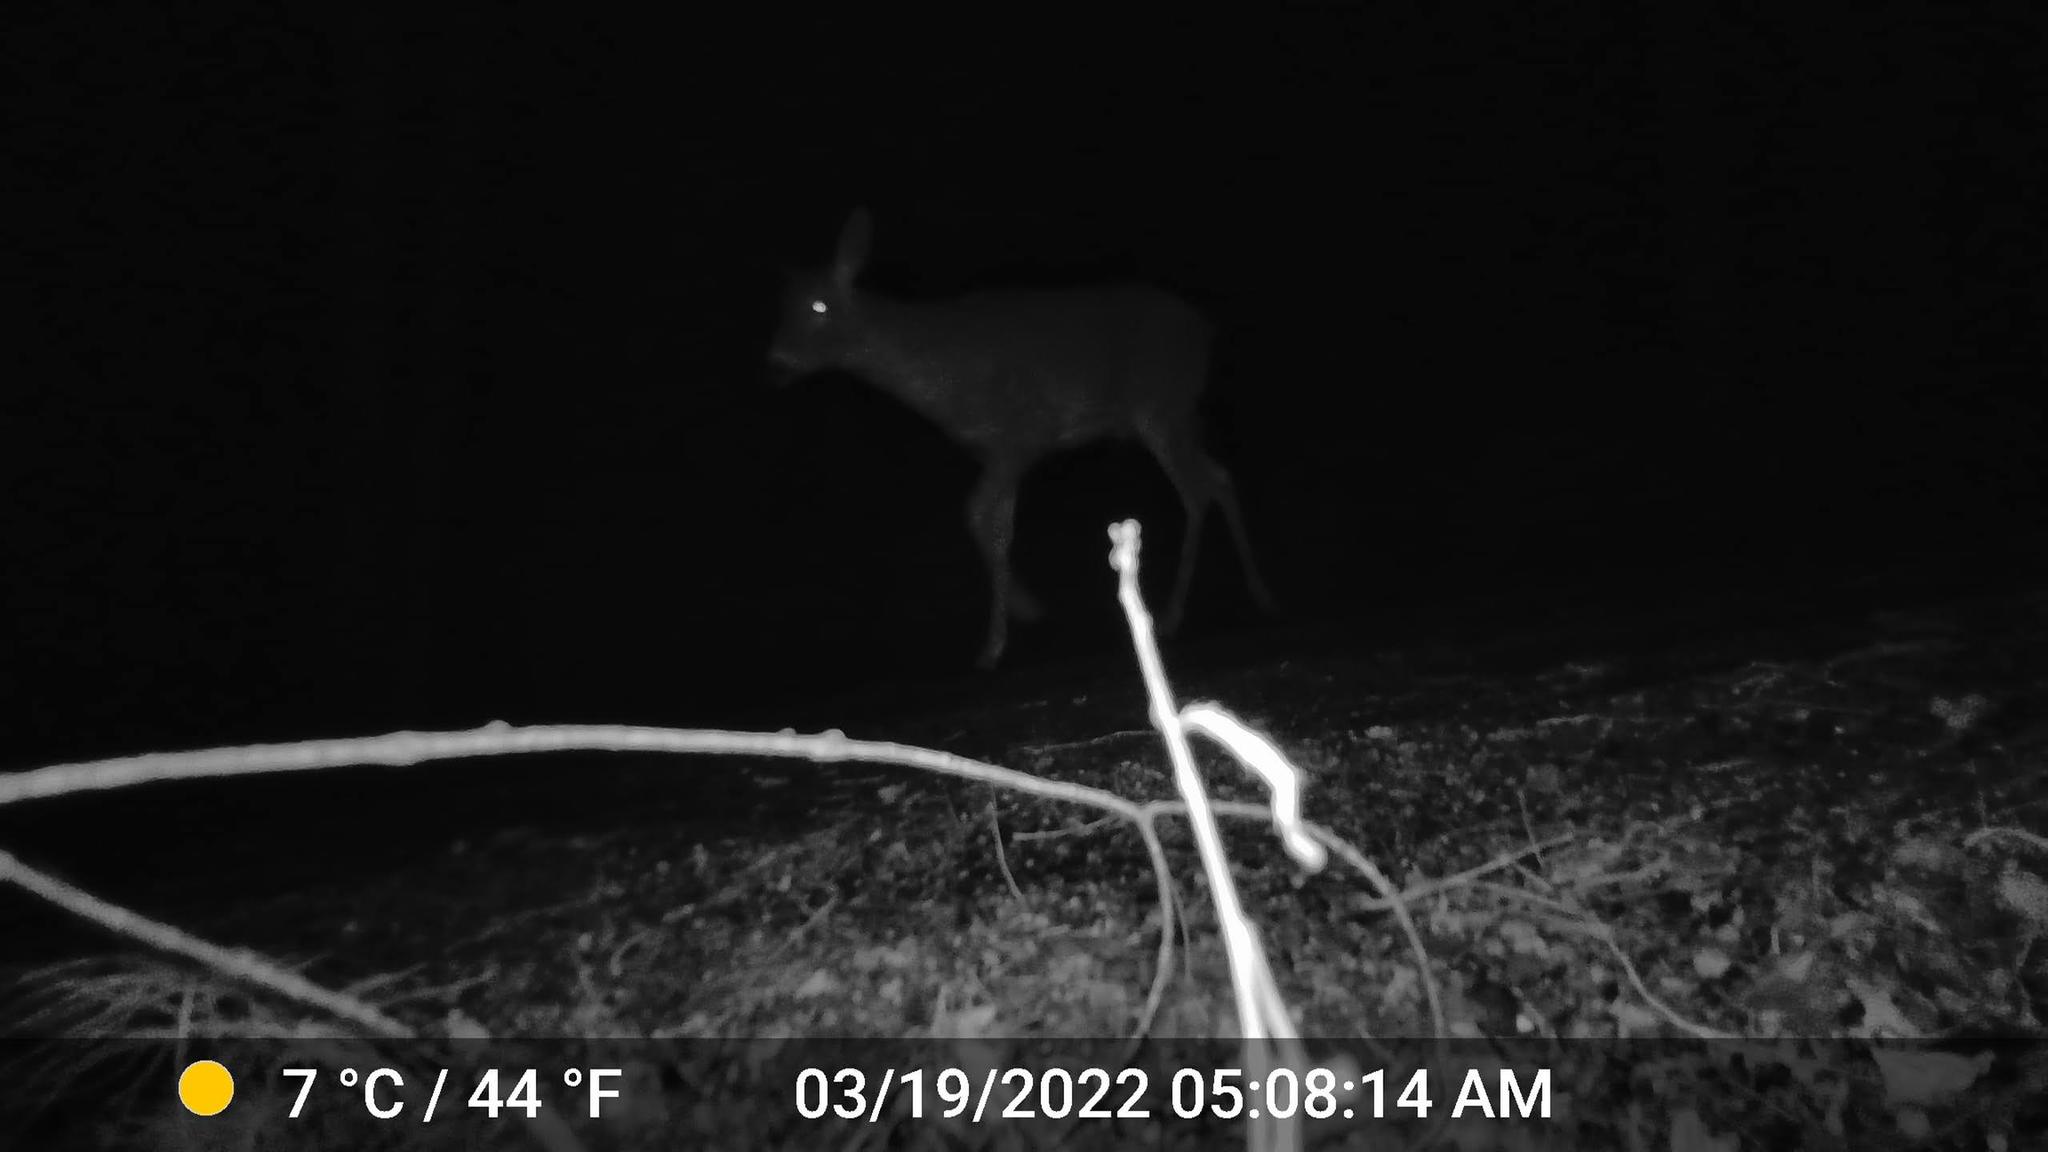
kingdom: Animalia
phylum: Chordata
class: Mammalia
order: Artiodactyla
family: Cervidae
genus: Odocoileus
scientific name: Odocoileus virginianus
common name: White-tailed deer
